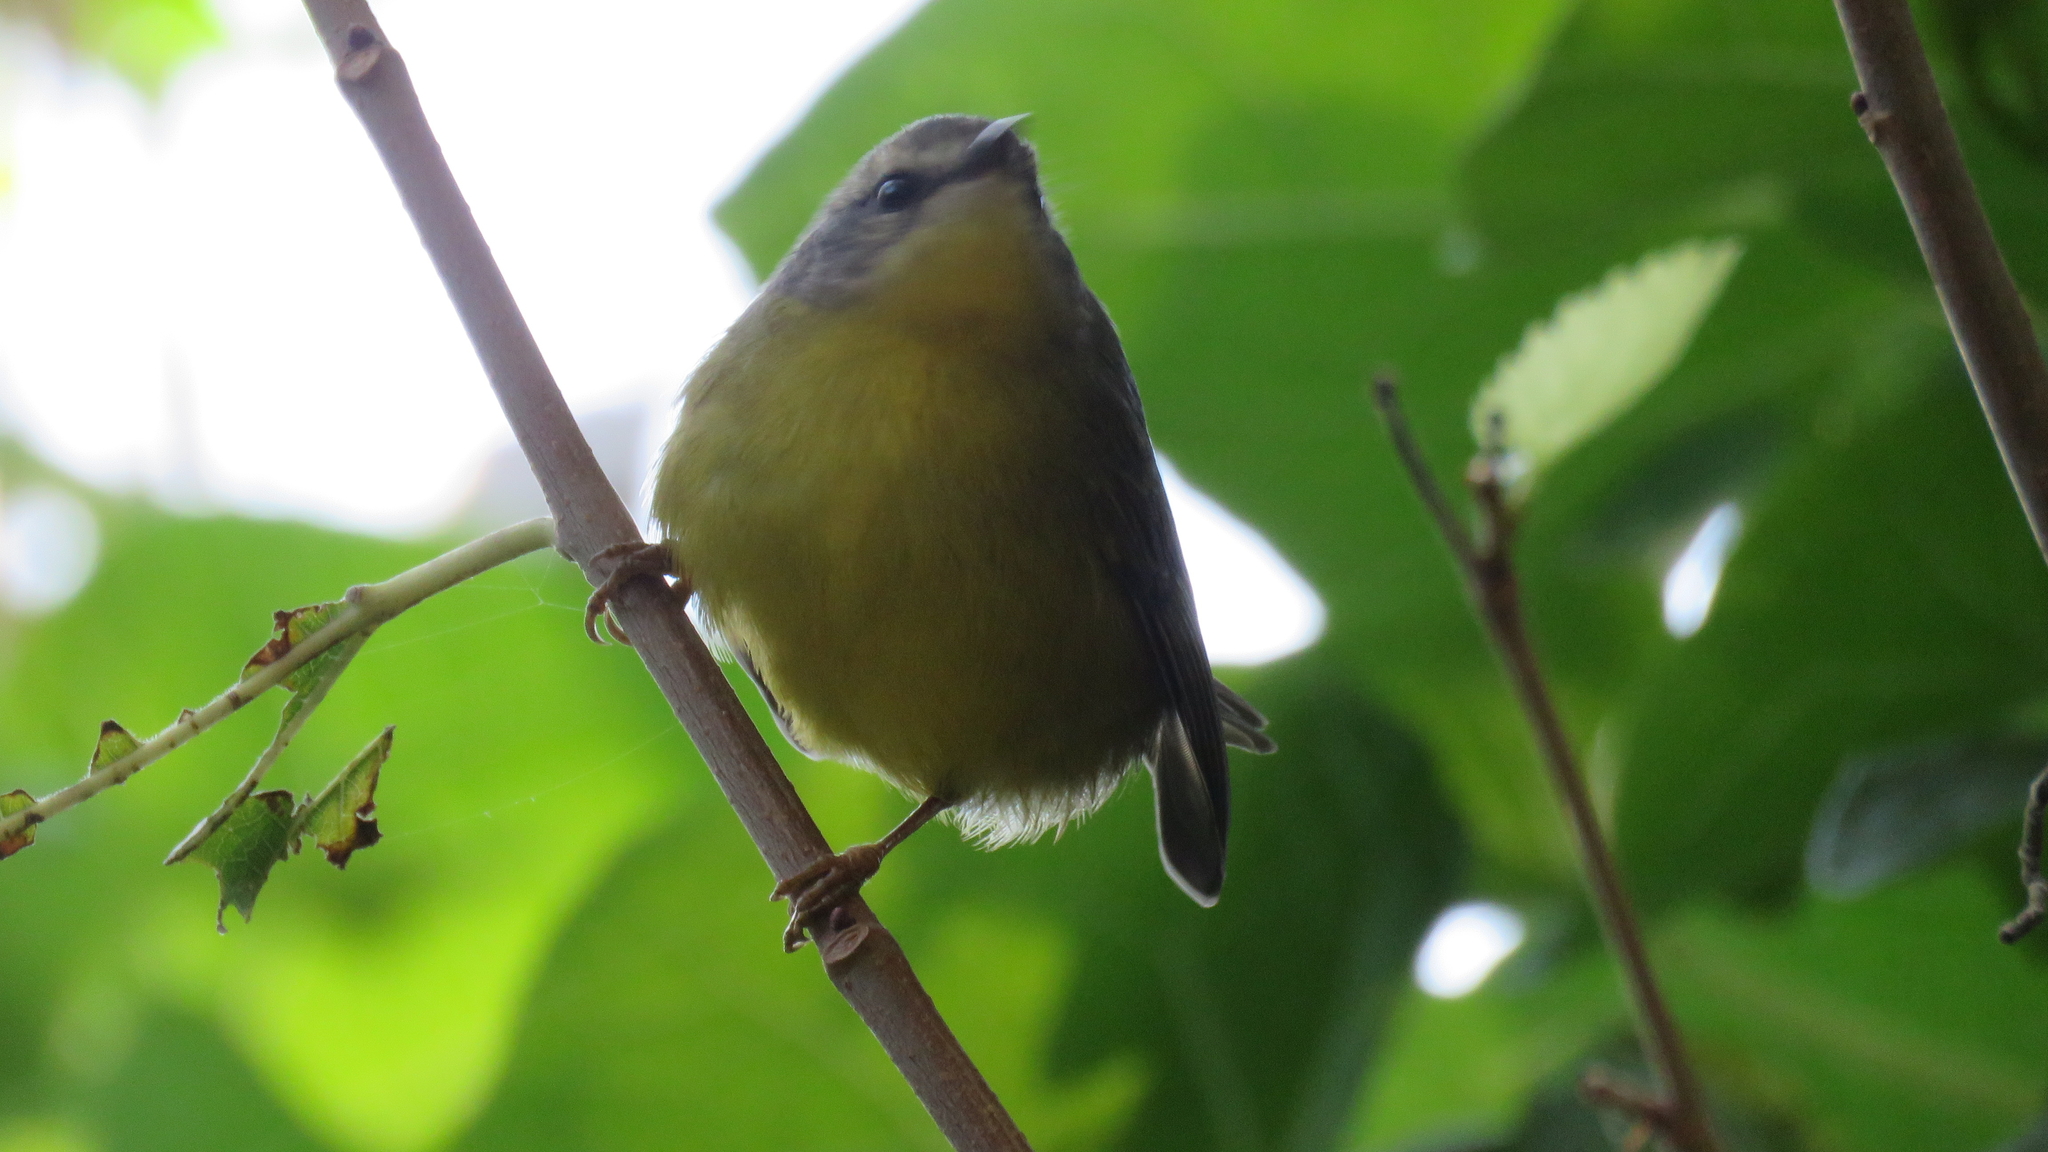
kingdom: Animalia
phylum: Chordata
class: Aves
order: Passeriformes
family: Parulidae
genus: Basileuterus
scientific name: Basileuterus culicivorus
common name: Golden-crowned warbler
